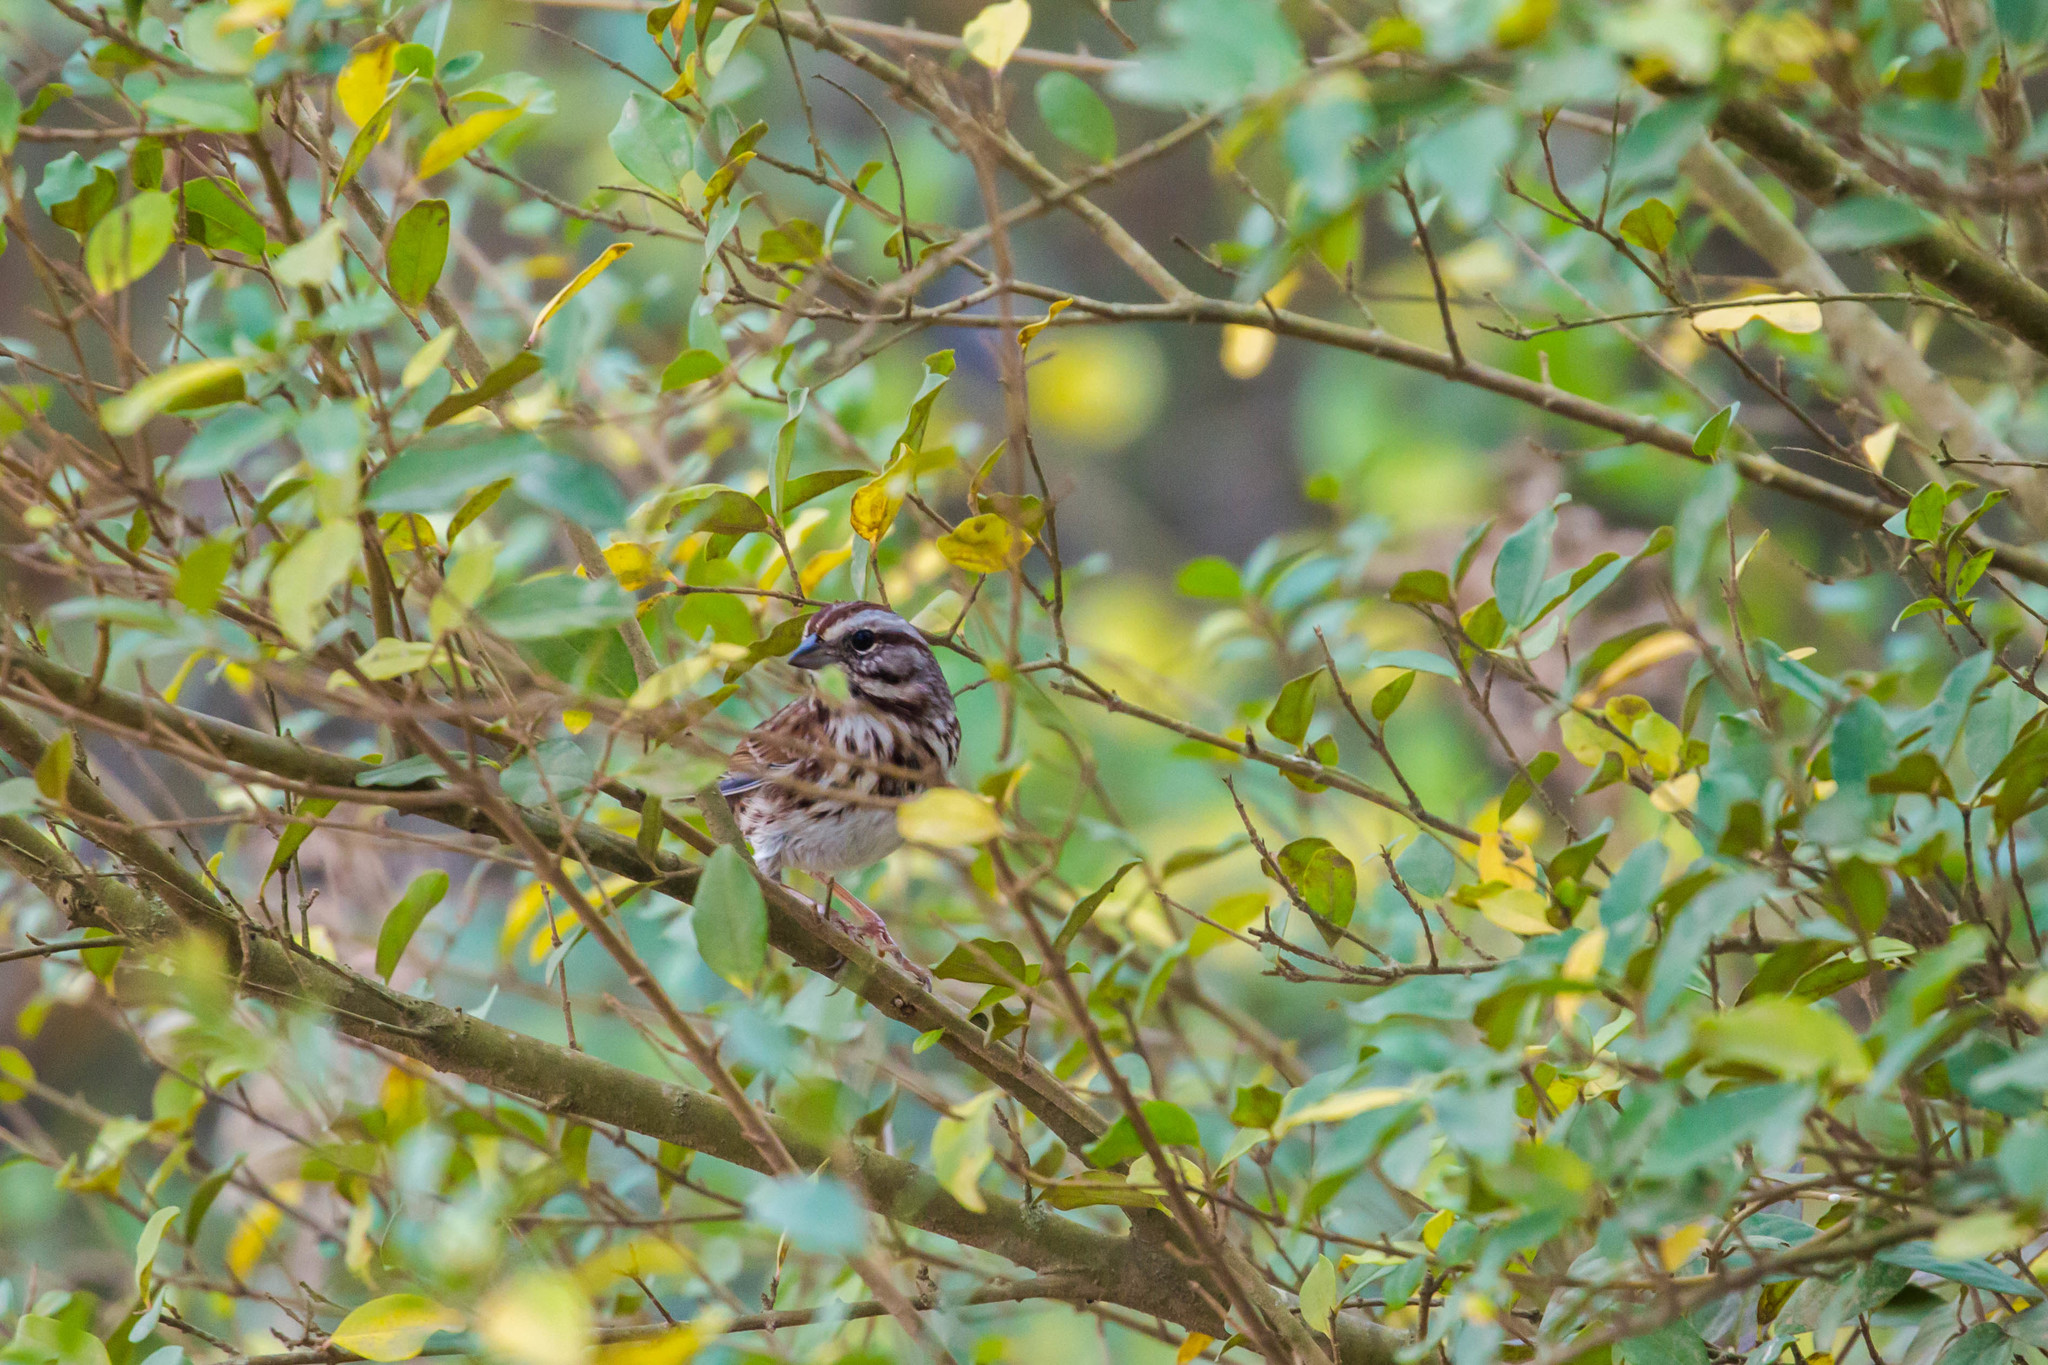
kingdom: Animalia
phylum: Chordata
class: Aves
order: Passeriformes
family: Passerellidae
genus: Melospiza
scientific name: Melospiza melodia
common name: Song sparrow
